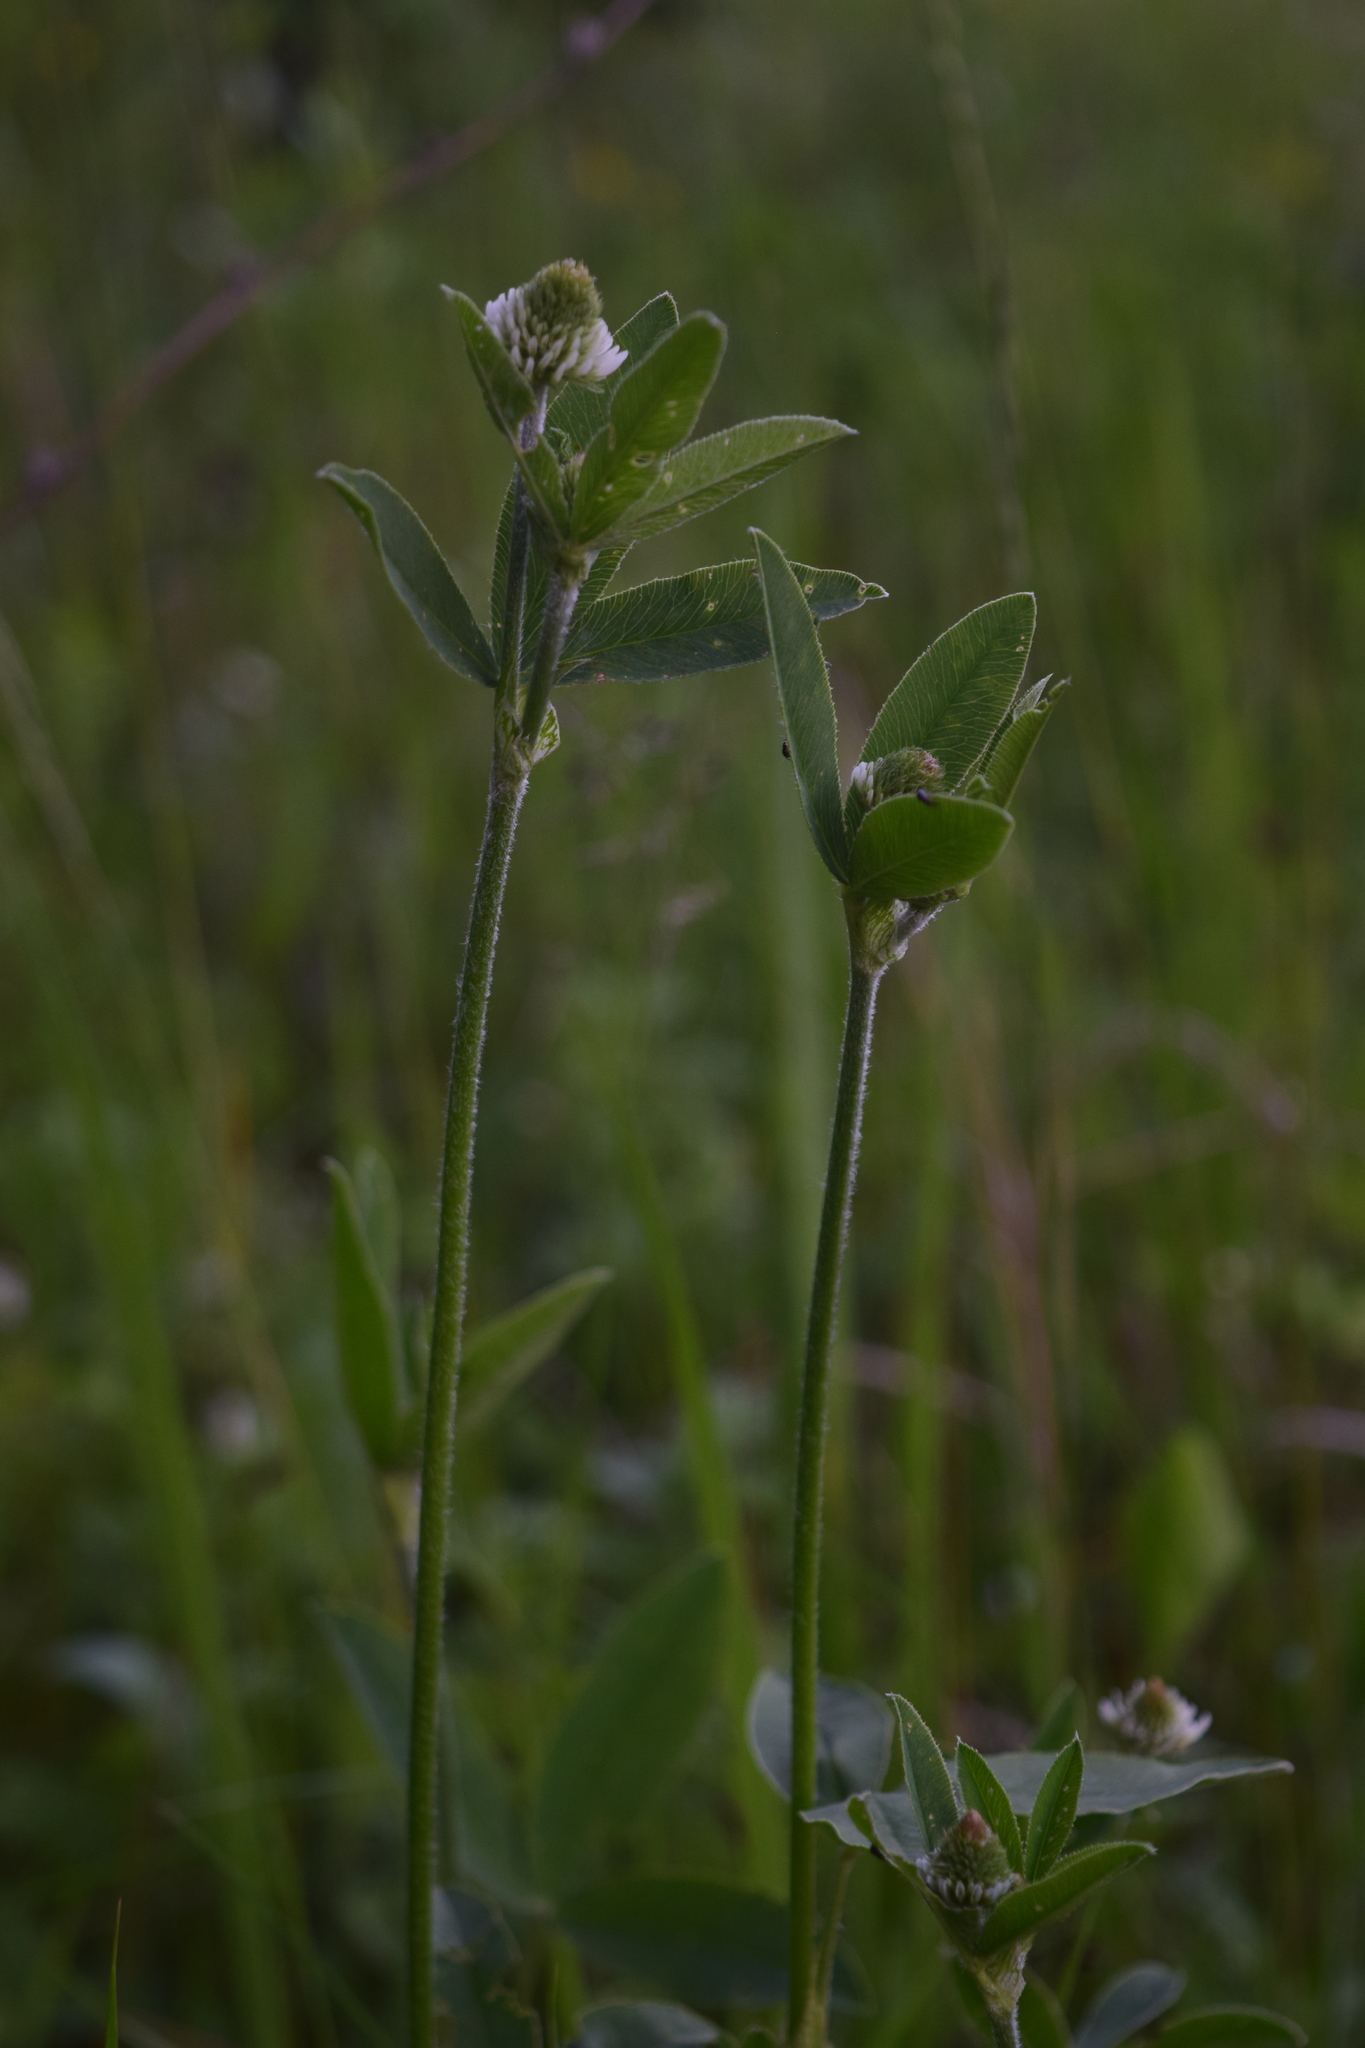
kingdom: Plantae
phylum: Tracheophyta
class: Magnoliopsida
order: Fabales
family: Fabaceae
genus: Trifolium
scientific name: Trifolium montanum
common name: Mountain clover
